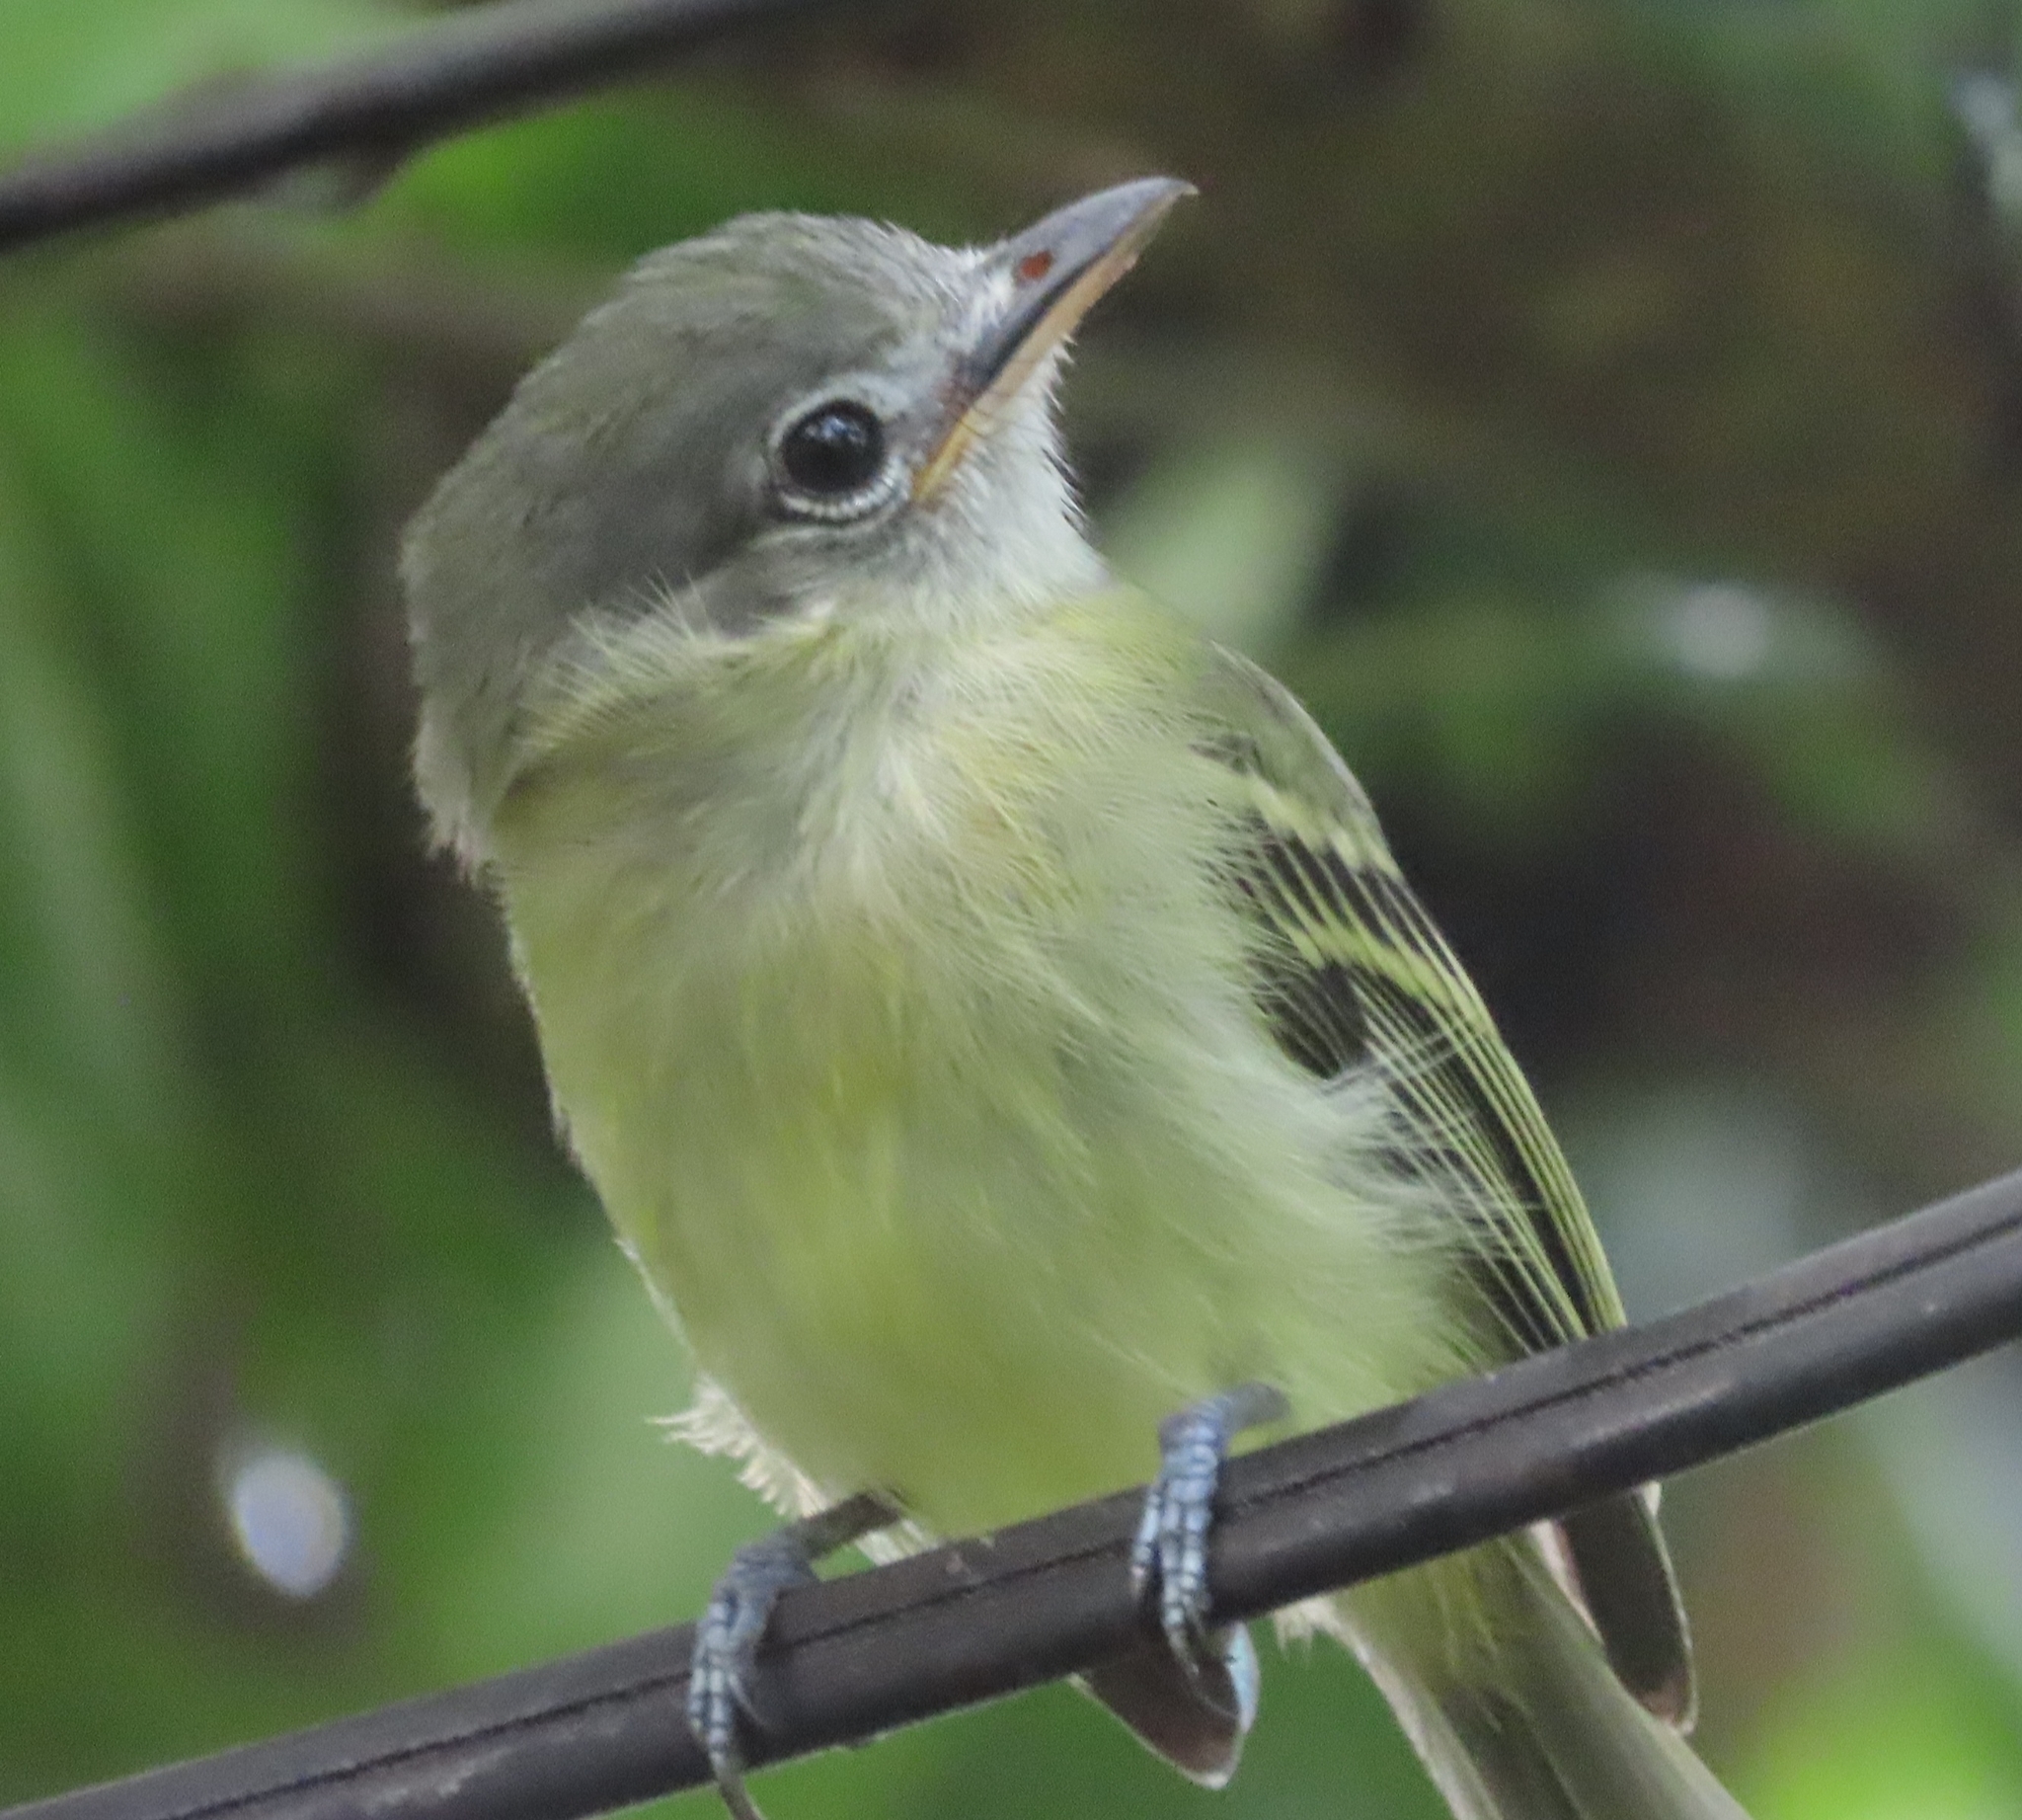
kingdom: Animalia
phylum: Chordata
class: Aves
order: Passeriformes
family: Tyrannidae
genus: Tolmomyias
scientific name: Tolmomyias sulphurescens
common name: Yellow-olive flycatcher
